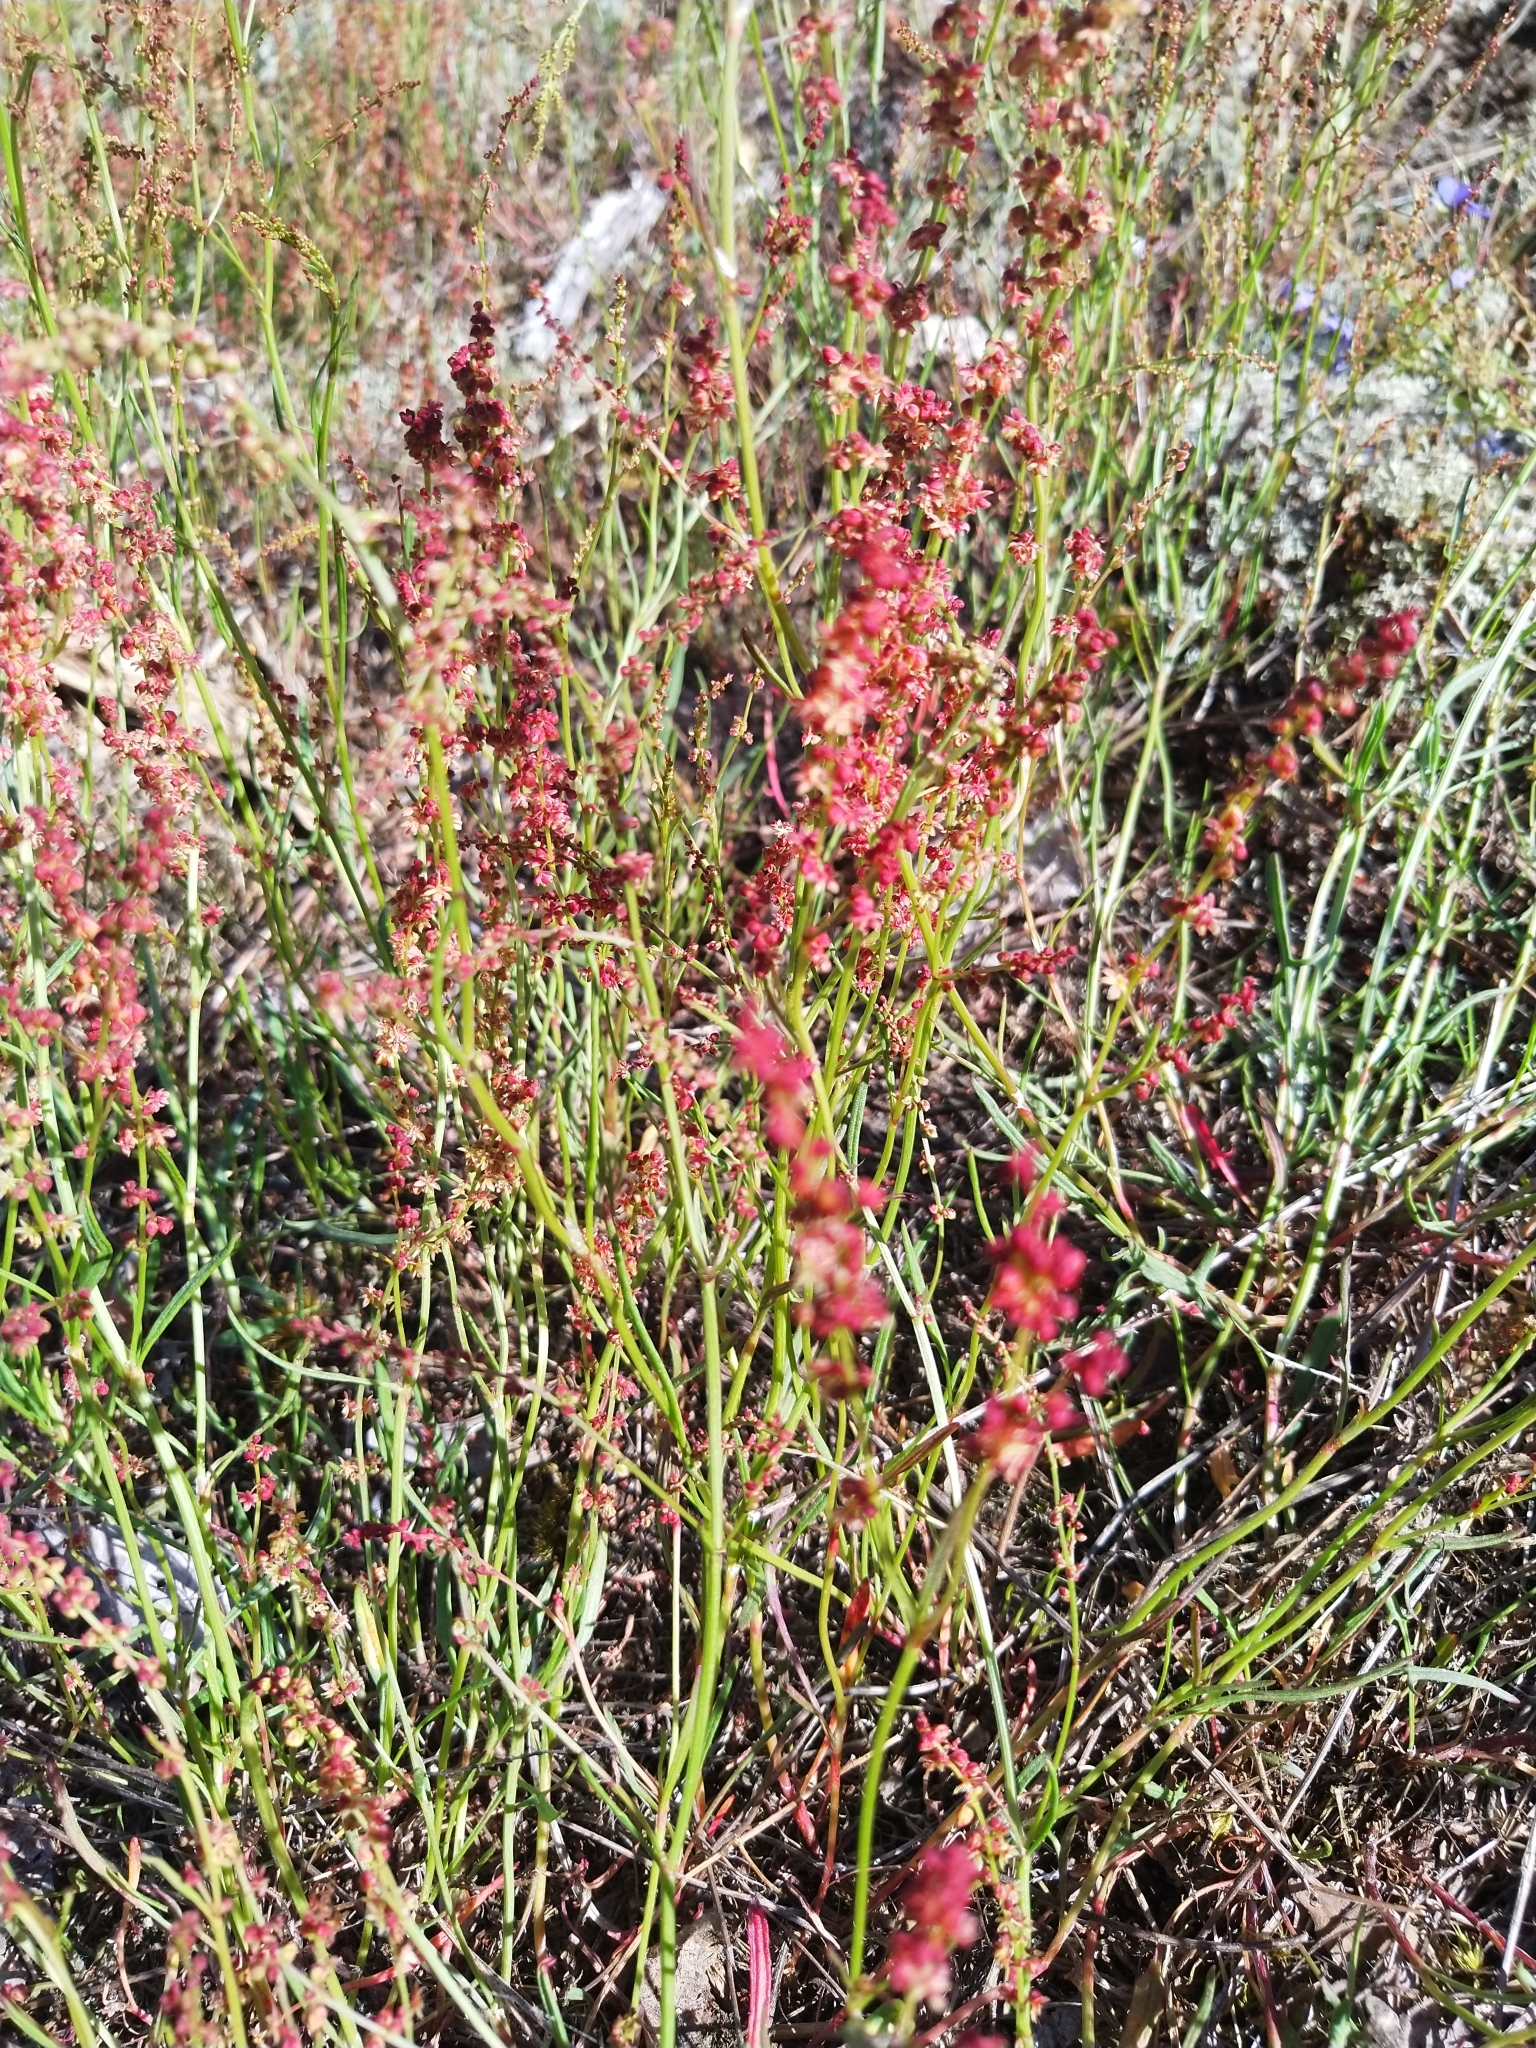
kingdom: Plantae
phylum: Tracheophyta
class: Magnoliopsida
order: Caryophyllales
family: Polygonaceae
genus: Rumex
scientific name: Rumex acetosella
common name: Common sheep sorrel
